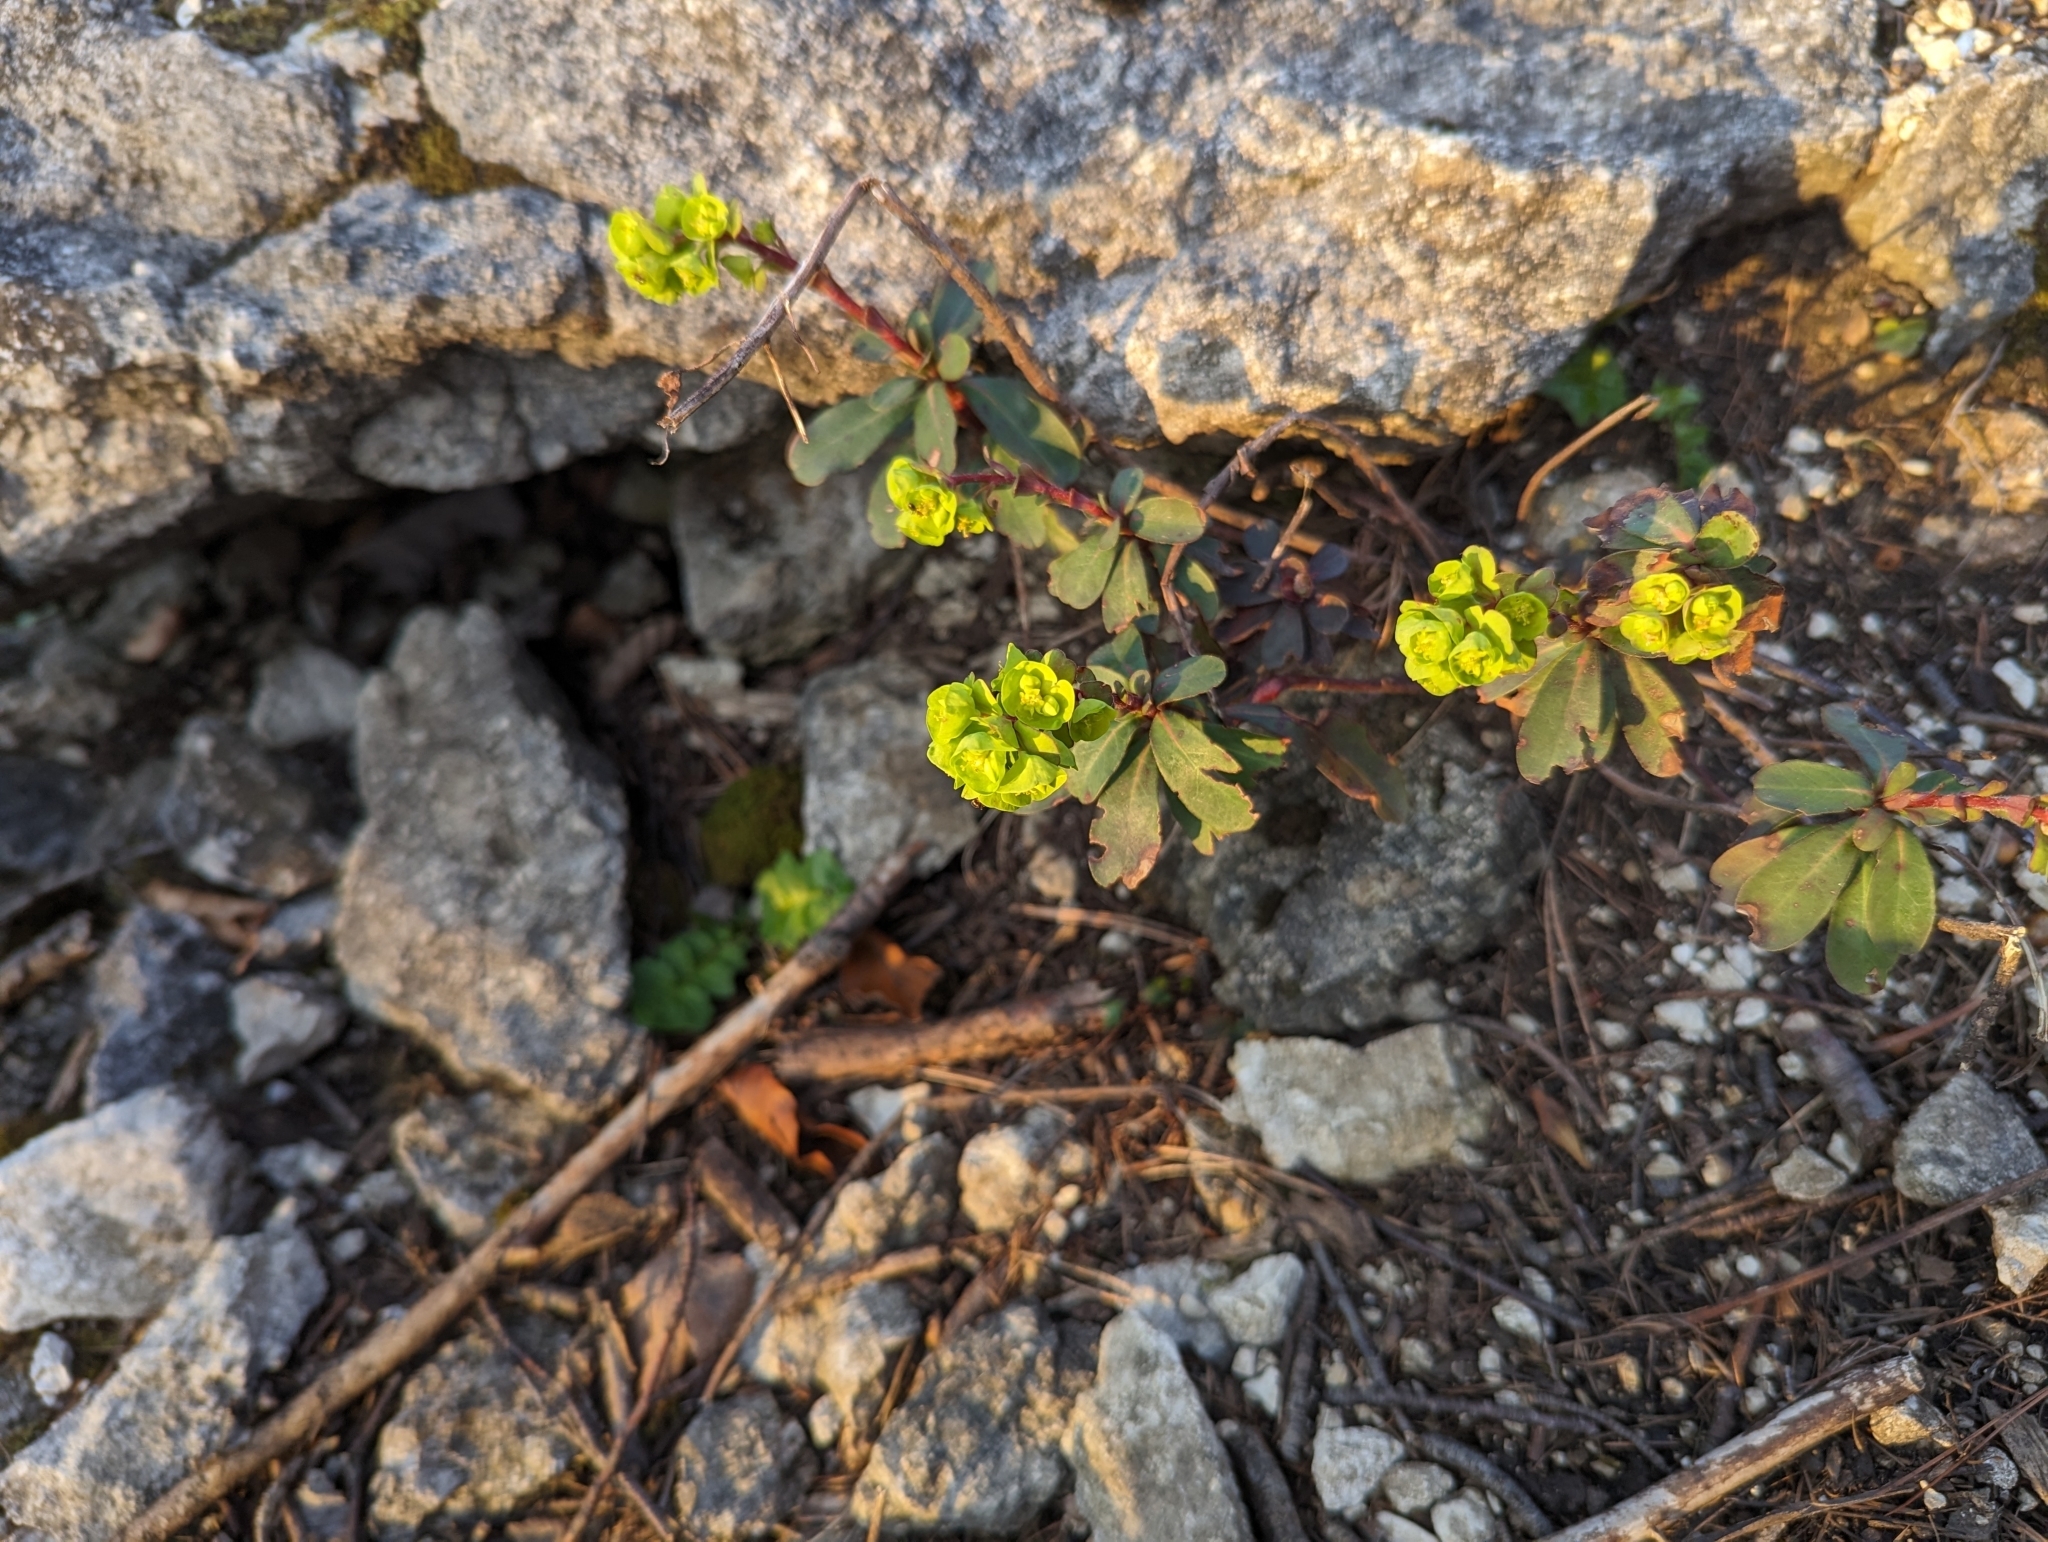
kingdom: Plantae
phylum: Tracheophyta
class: Magnoliopsida
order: Malpighiales
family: Euphorbiaceae
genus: Euphorbia
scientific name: Euphorbia amygdaloides
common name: Wood spurge
